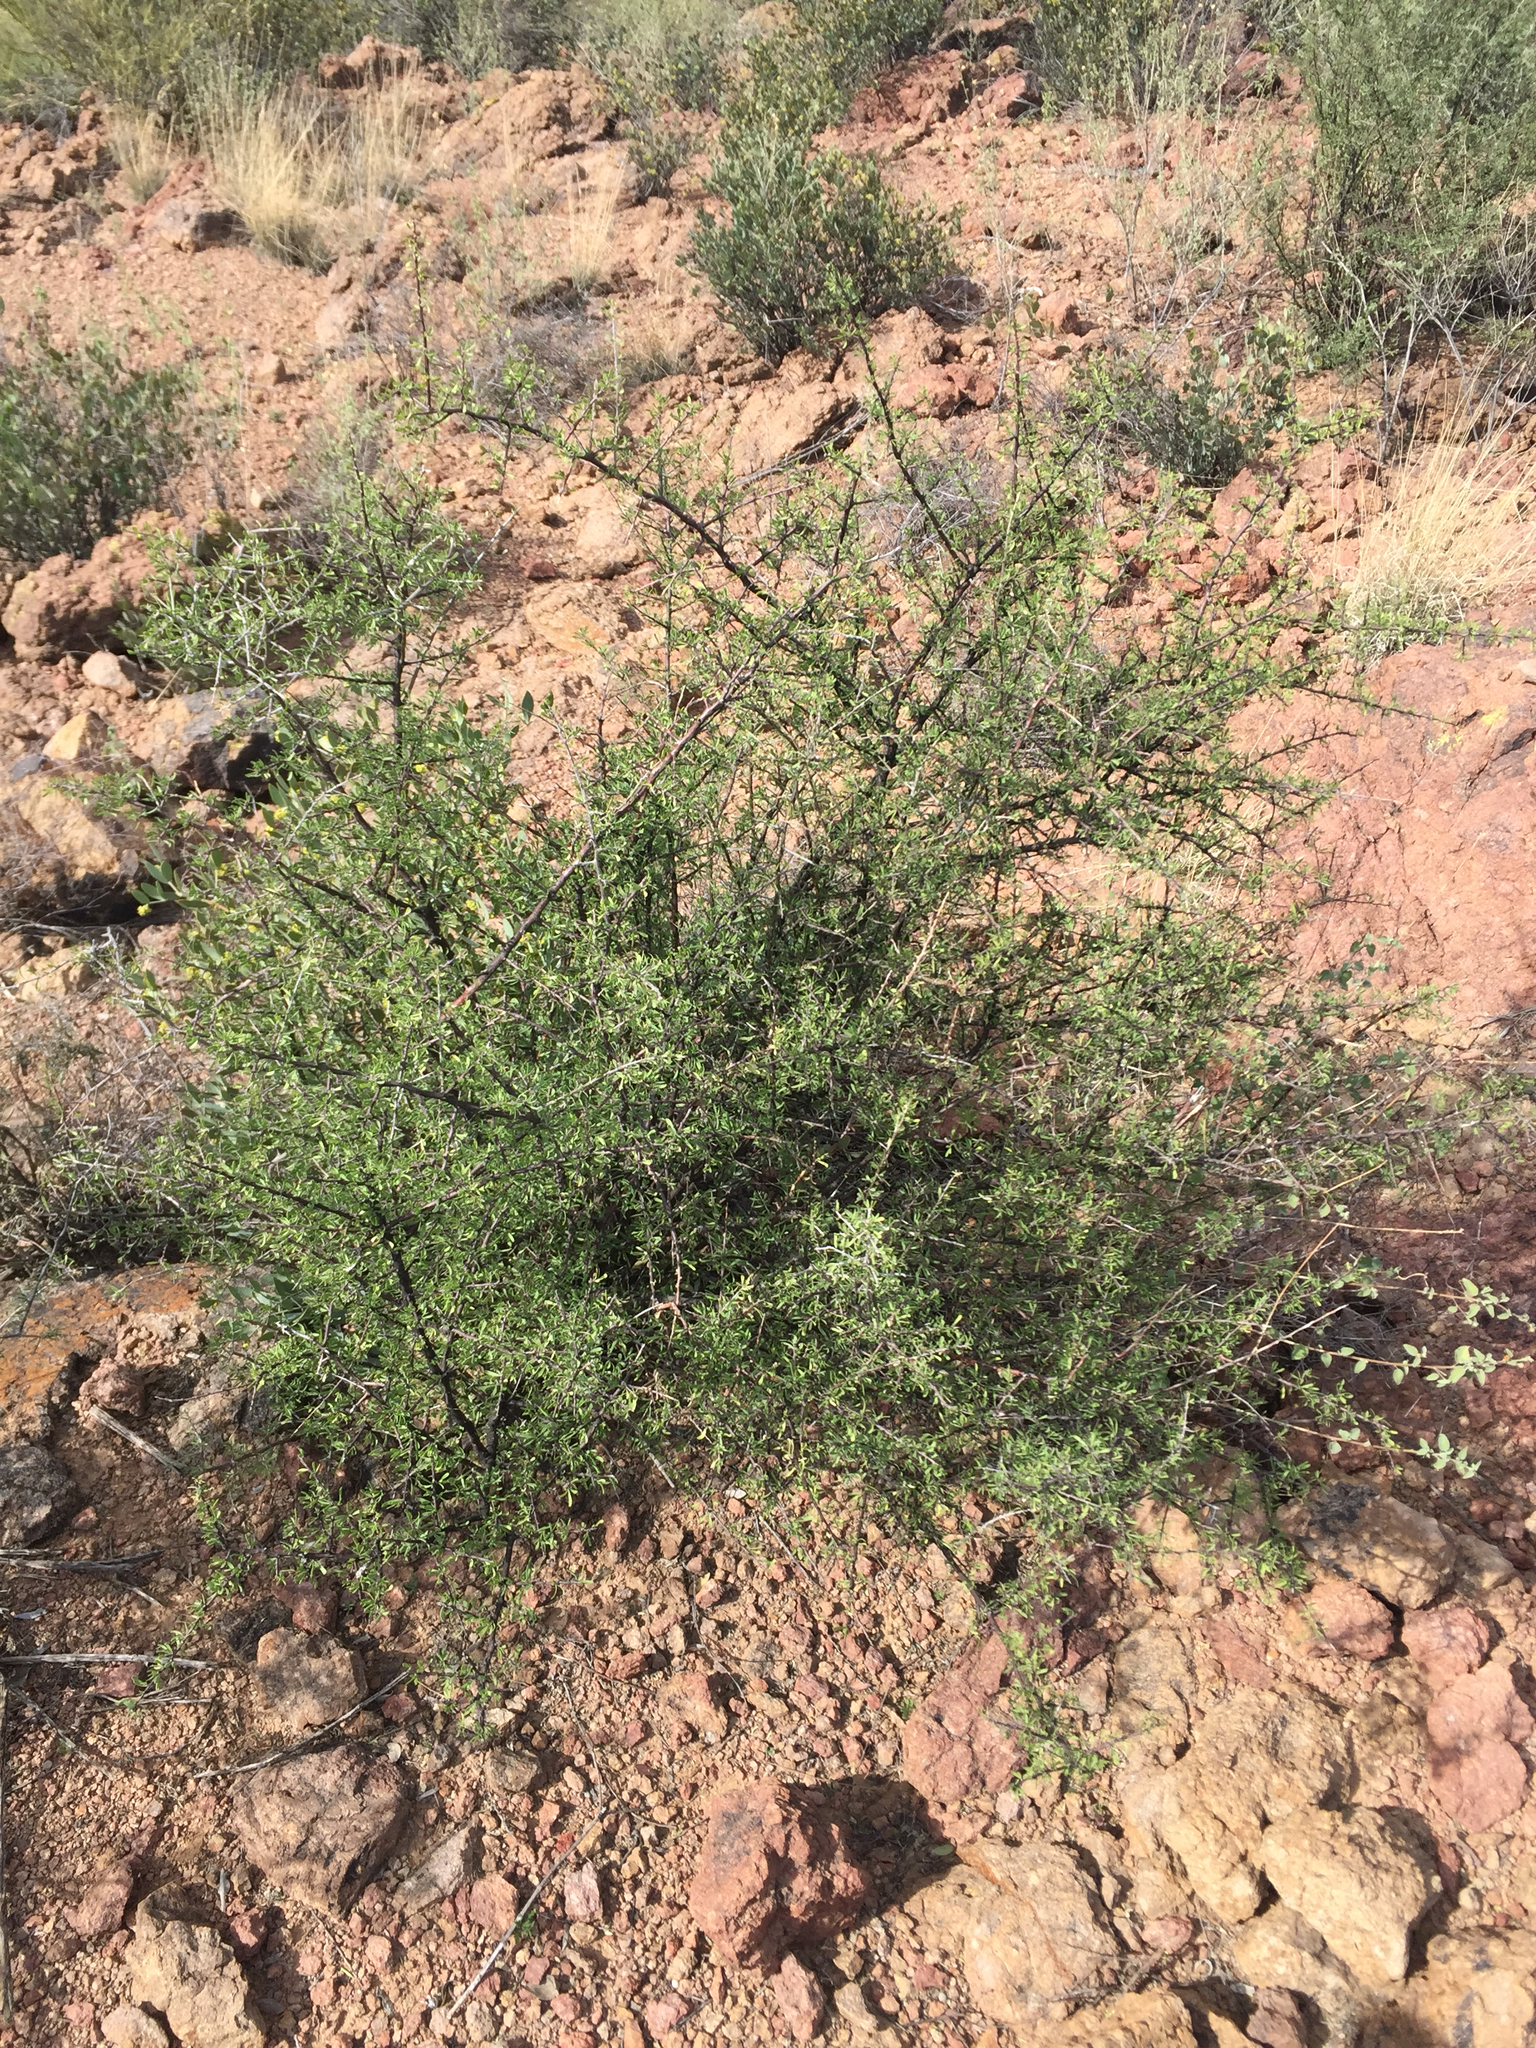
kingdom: Plantae
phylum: Tracheophyta
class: Magnoliopsida
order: Solanales
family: Solanaceae
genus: Lycium
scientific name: Lycium berlandieri
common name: Berlandier wolfberry
